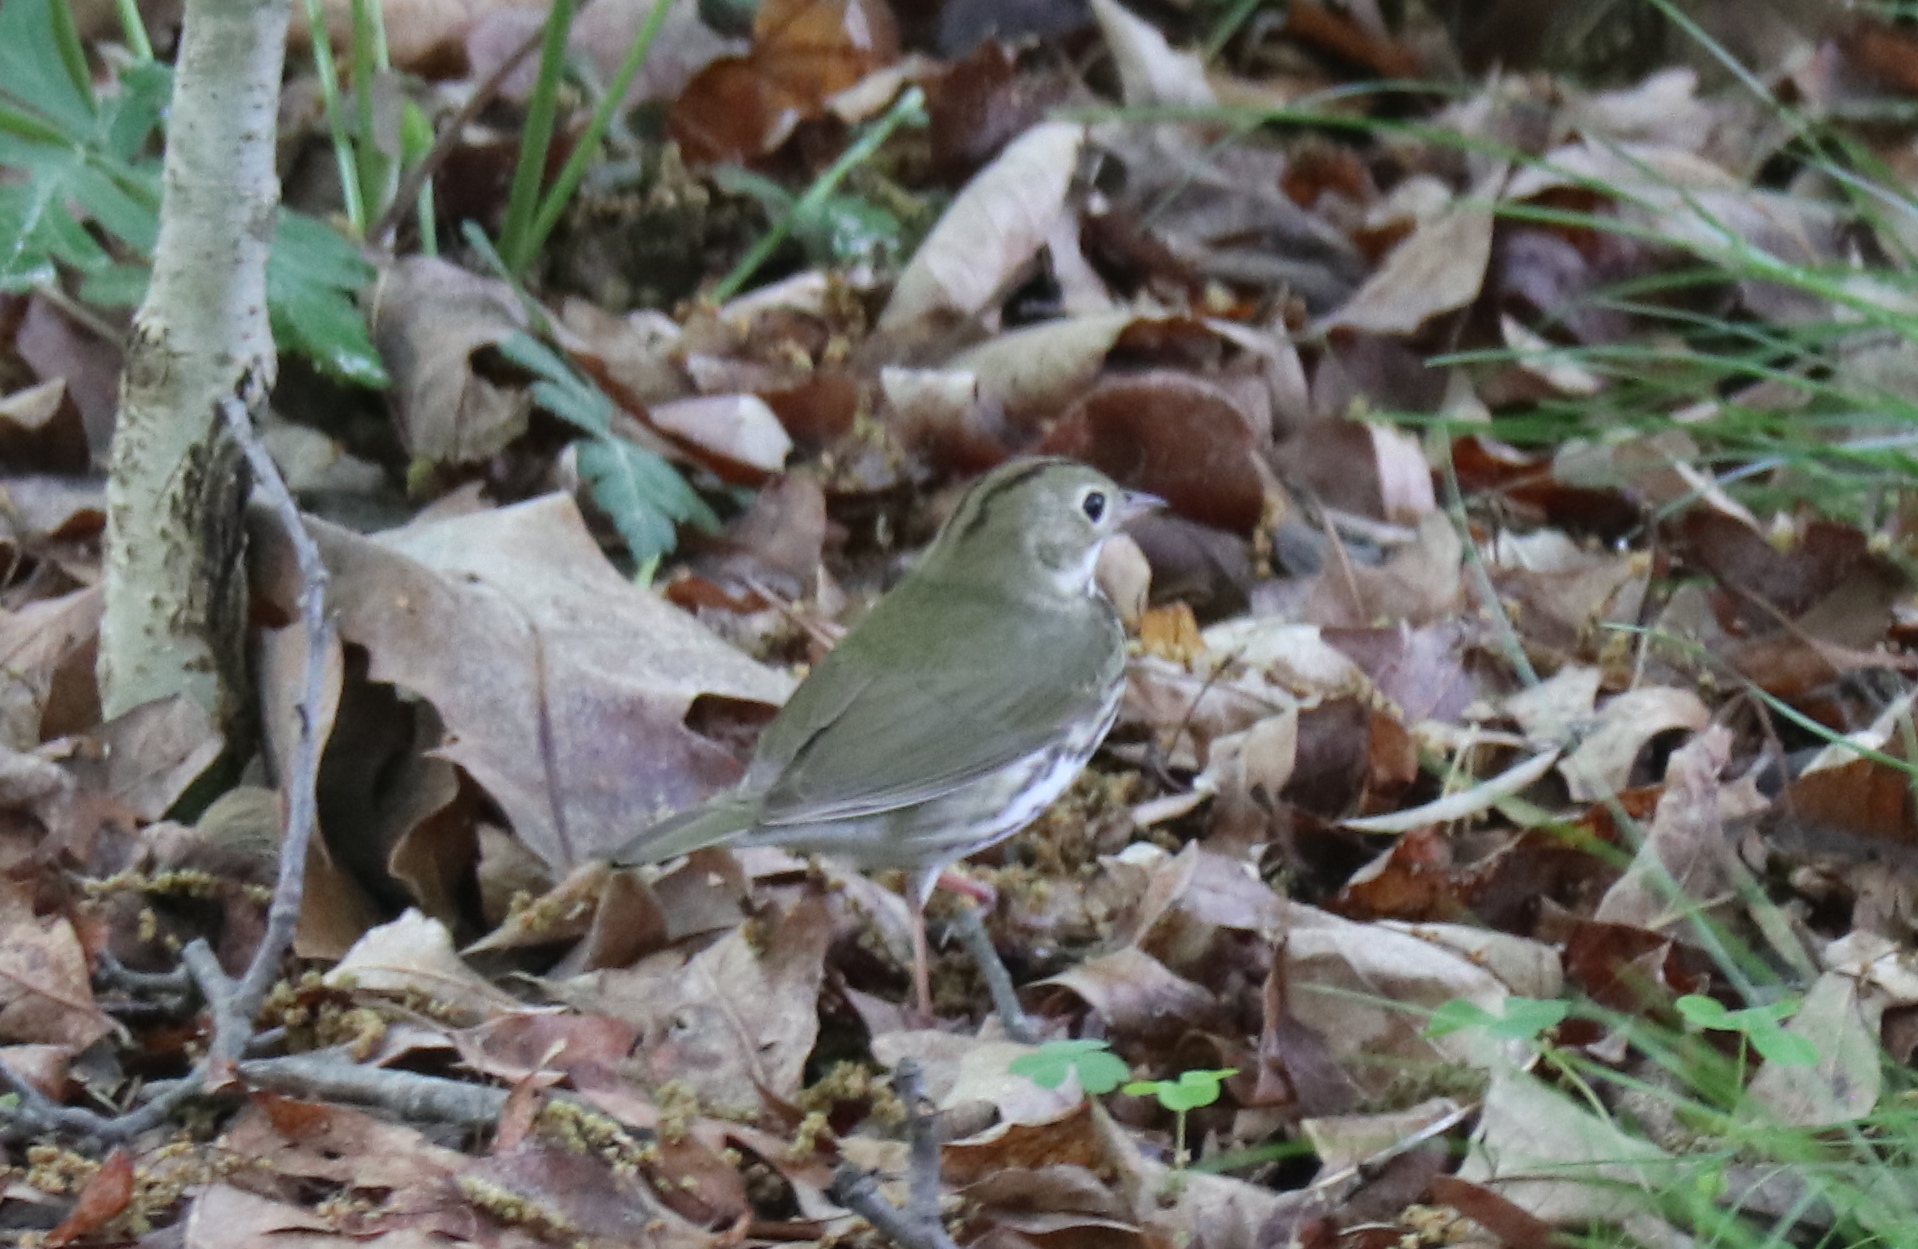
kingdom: Animalia
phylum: Chordata
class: Aves
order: Passeriformes
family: Parulidae
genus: Seiurus
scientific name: Seiurus aurocapilla
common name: Ovenbird
